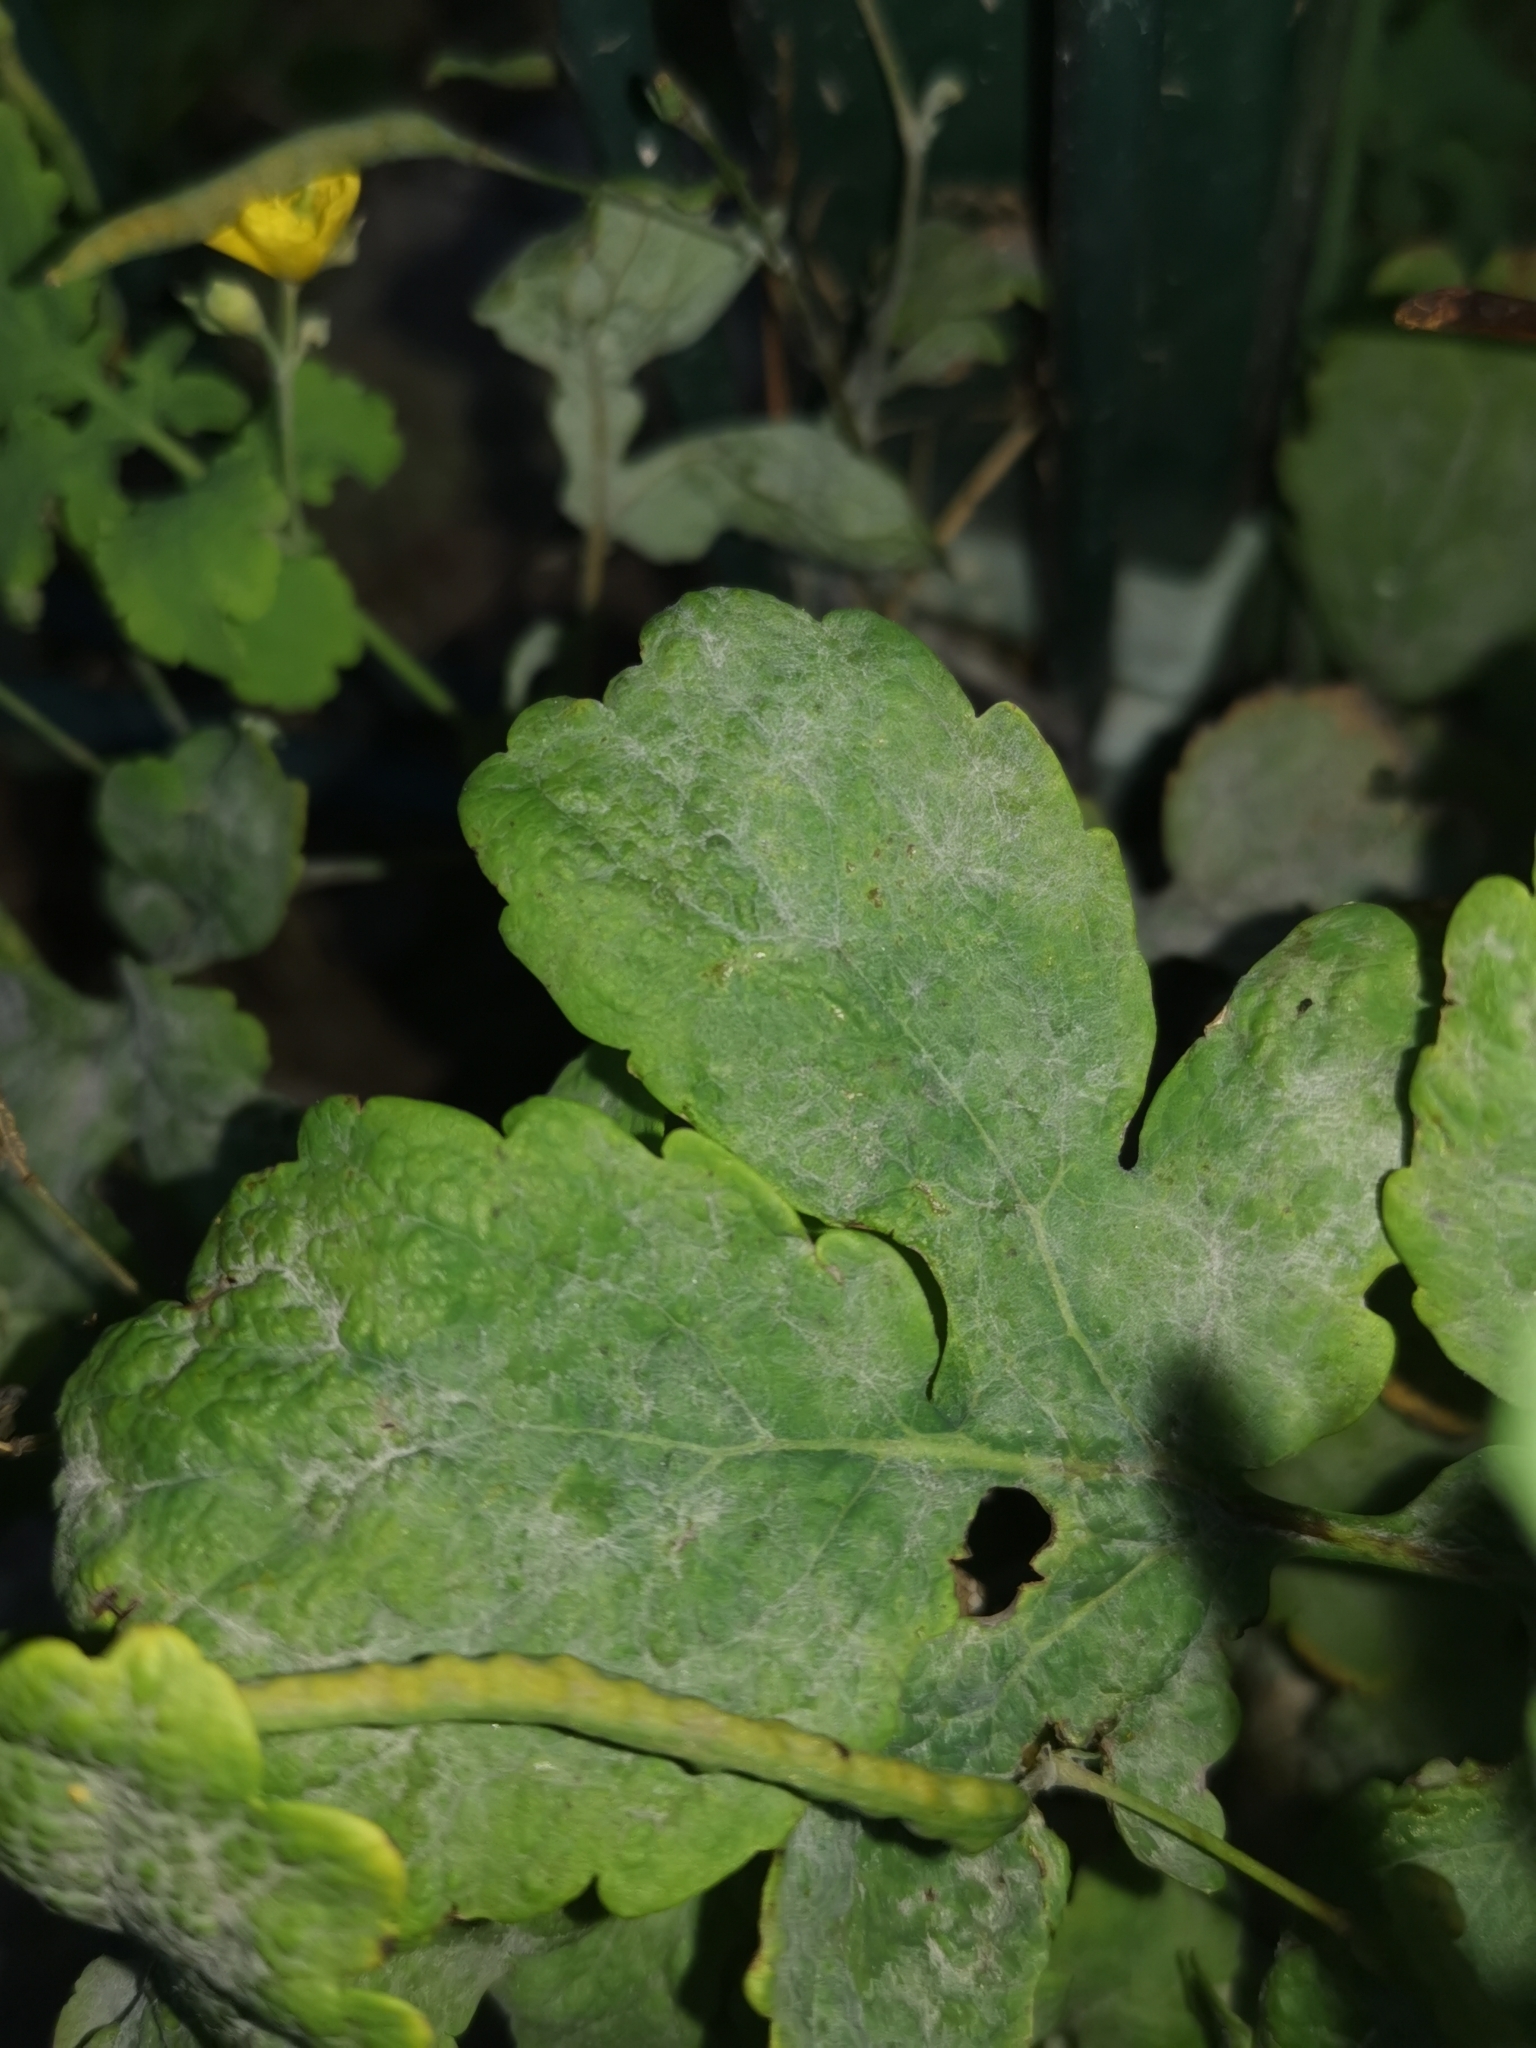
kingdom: Fungi
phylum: Ascomycota
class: Leotiomycetes
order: Helotiales
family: Erysiphaceae
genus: Erysiphe
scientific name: Erysiphe macleayae
